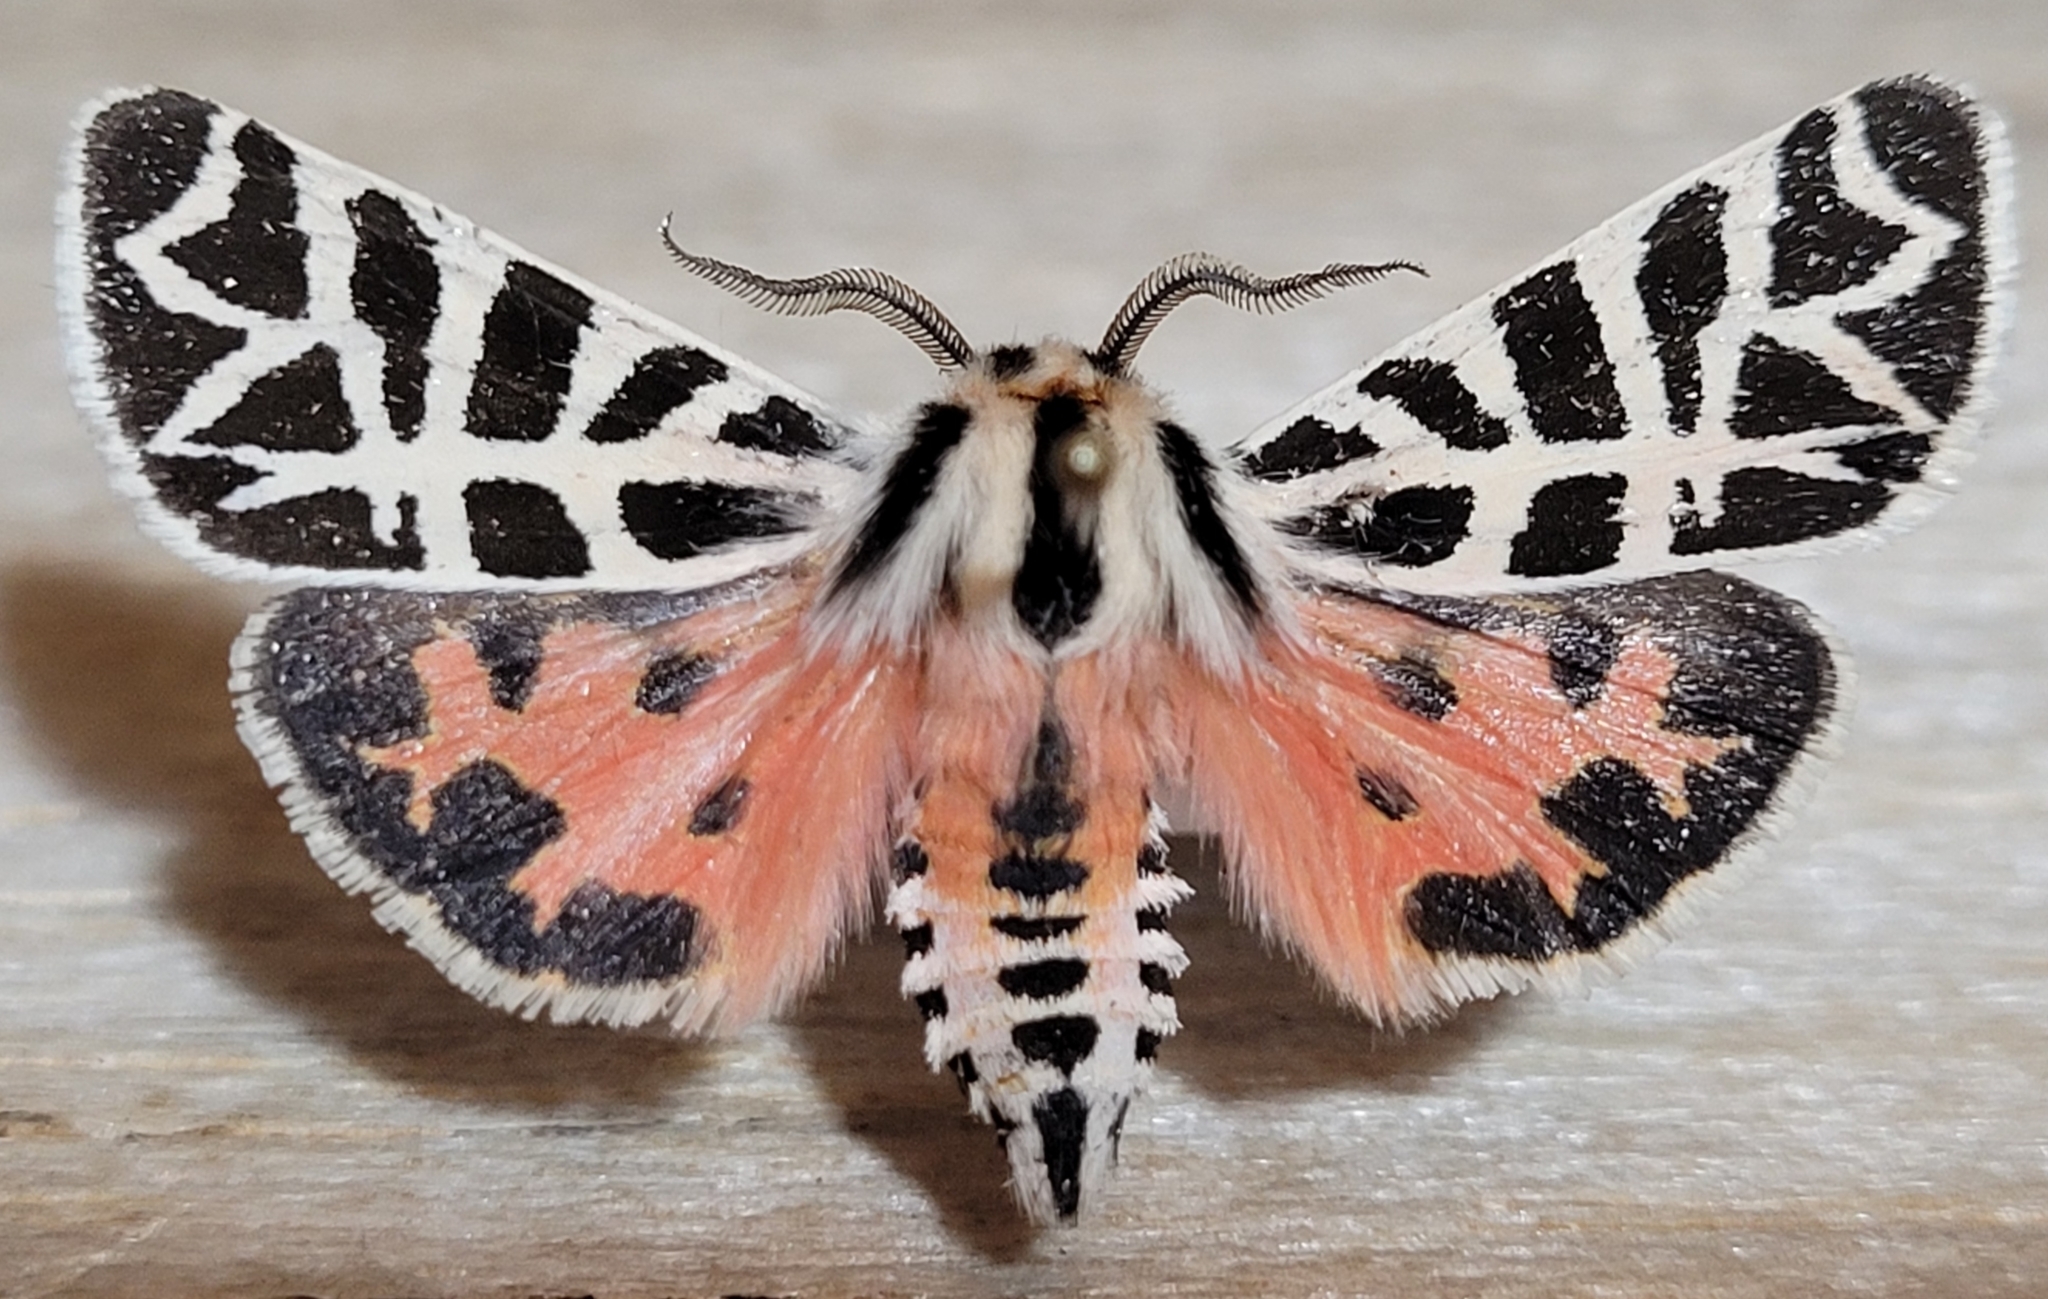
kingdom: Animalia
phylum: Arthropoda
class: Insecta
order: Lepidoptera
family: Erebidae
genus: Apantesis
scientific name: Apantesis
